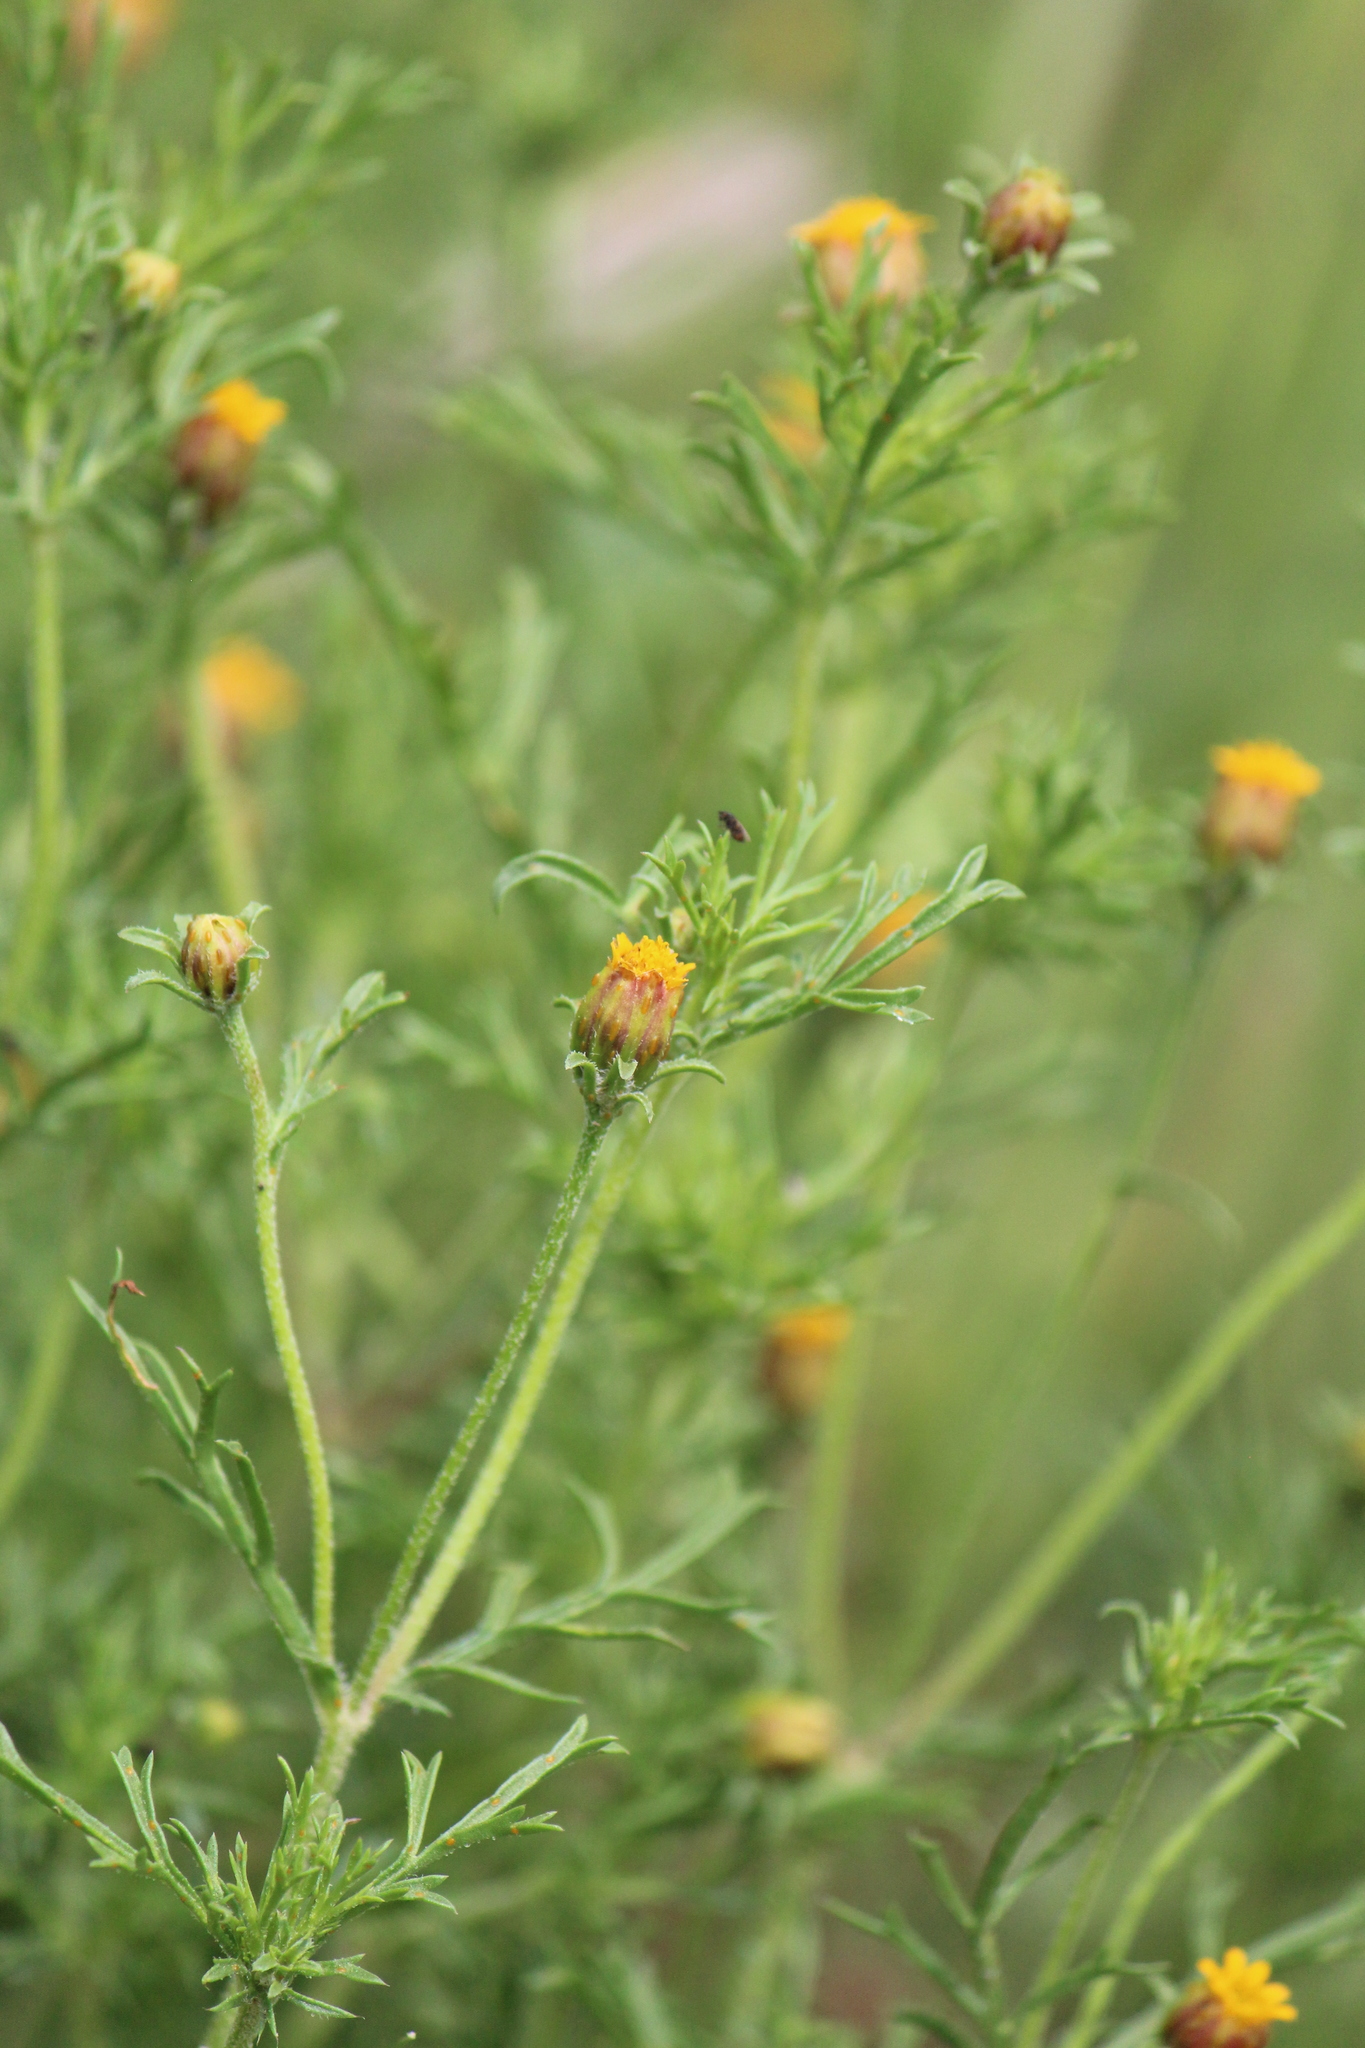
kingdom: Plantae
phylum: Tracheophyta
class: Magnoliopsida
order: Asterales
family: Asteraceae
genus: Dyssodia
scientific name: Dyssodia papposa
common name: Dogweed
